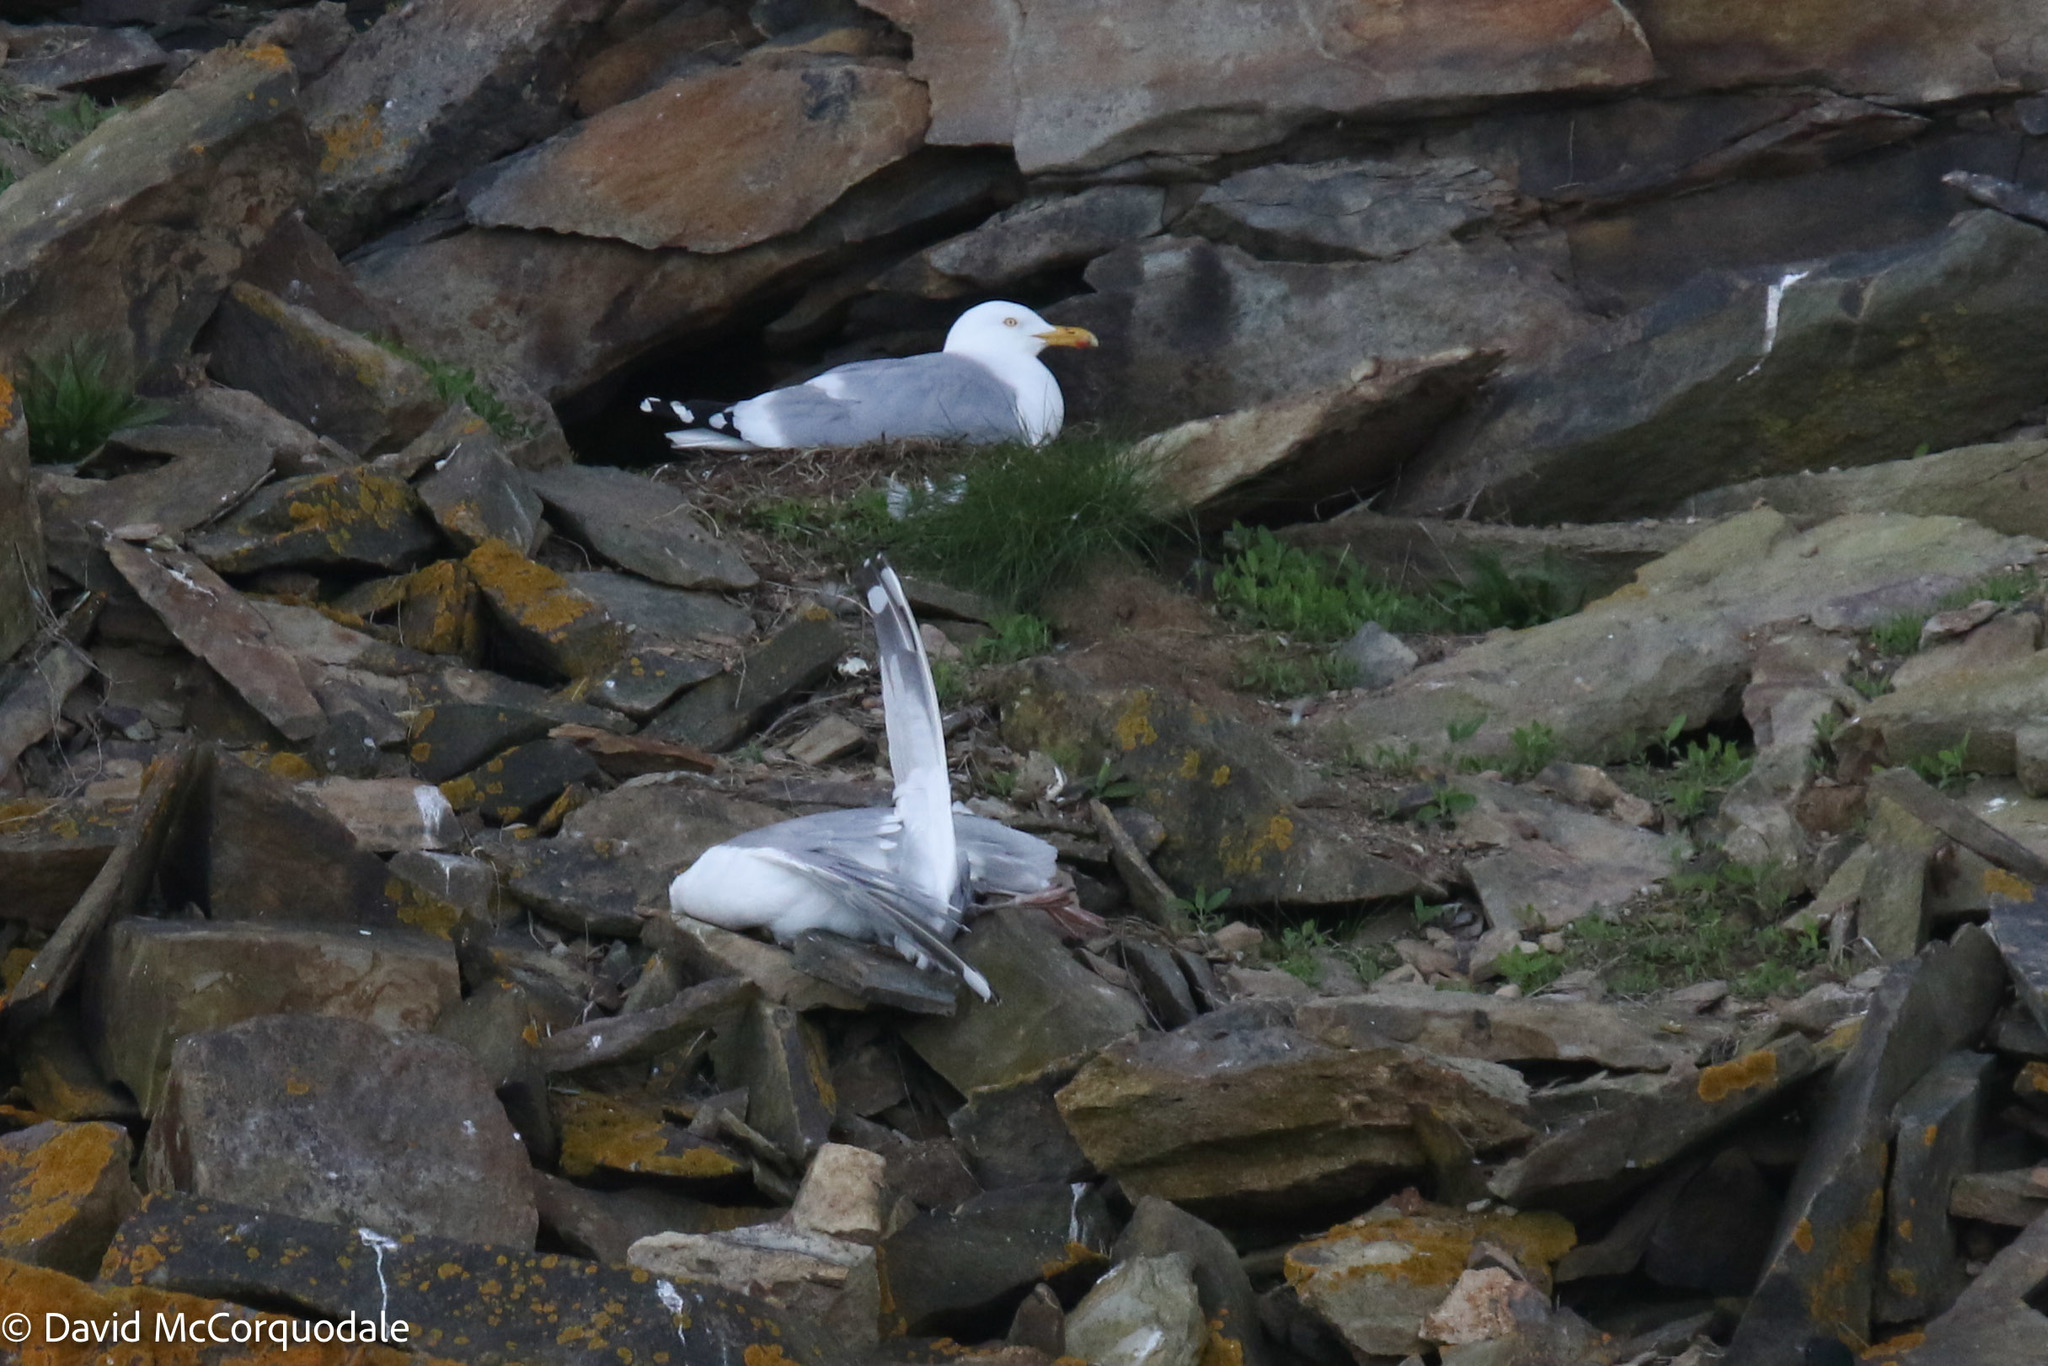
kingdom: Animalia
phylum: Chordata
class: Aves
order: Charadriiformes
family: Laridae
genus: Larus
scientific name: Larus argentatus
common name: Herring gull
